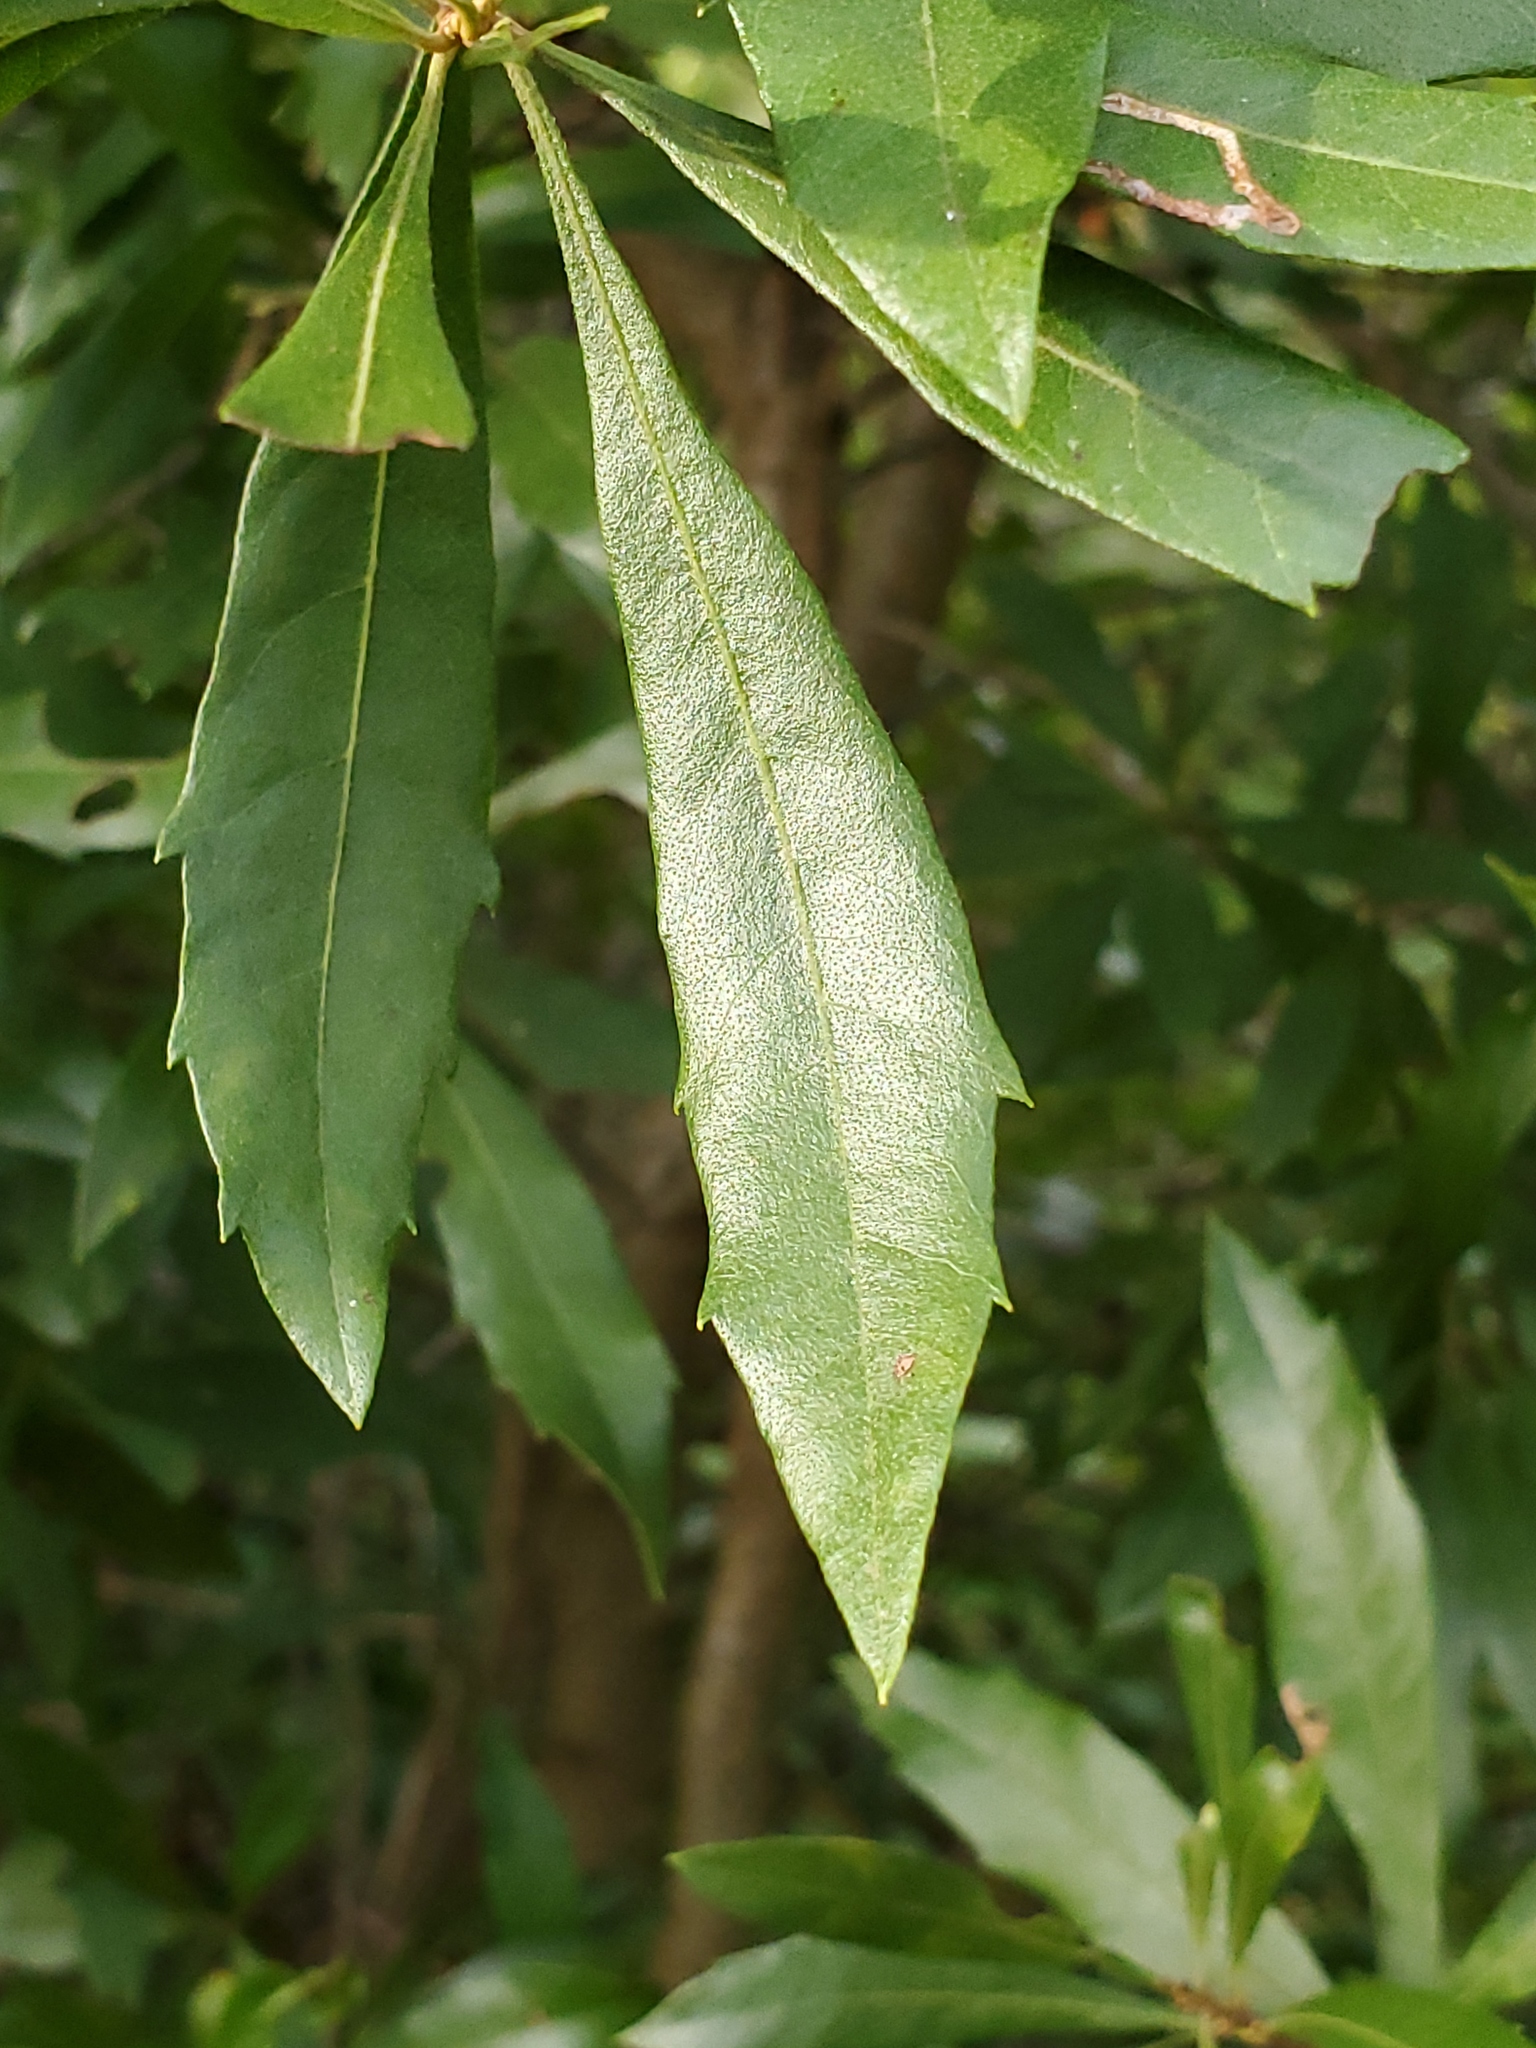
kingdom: Plantae
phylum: Tracheophyta
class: Magnoliopsida
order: Fagales
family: Myricaceae
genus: Morella
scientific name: Morella cerifera
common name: Wax myrtle
